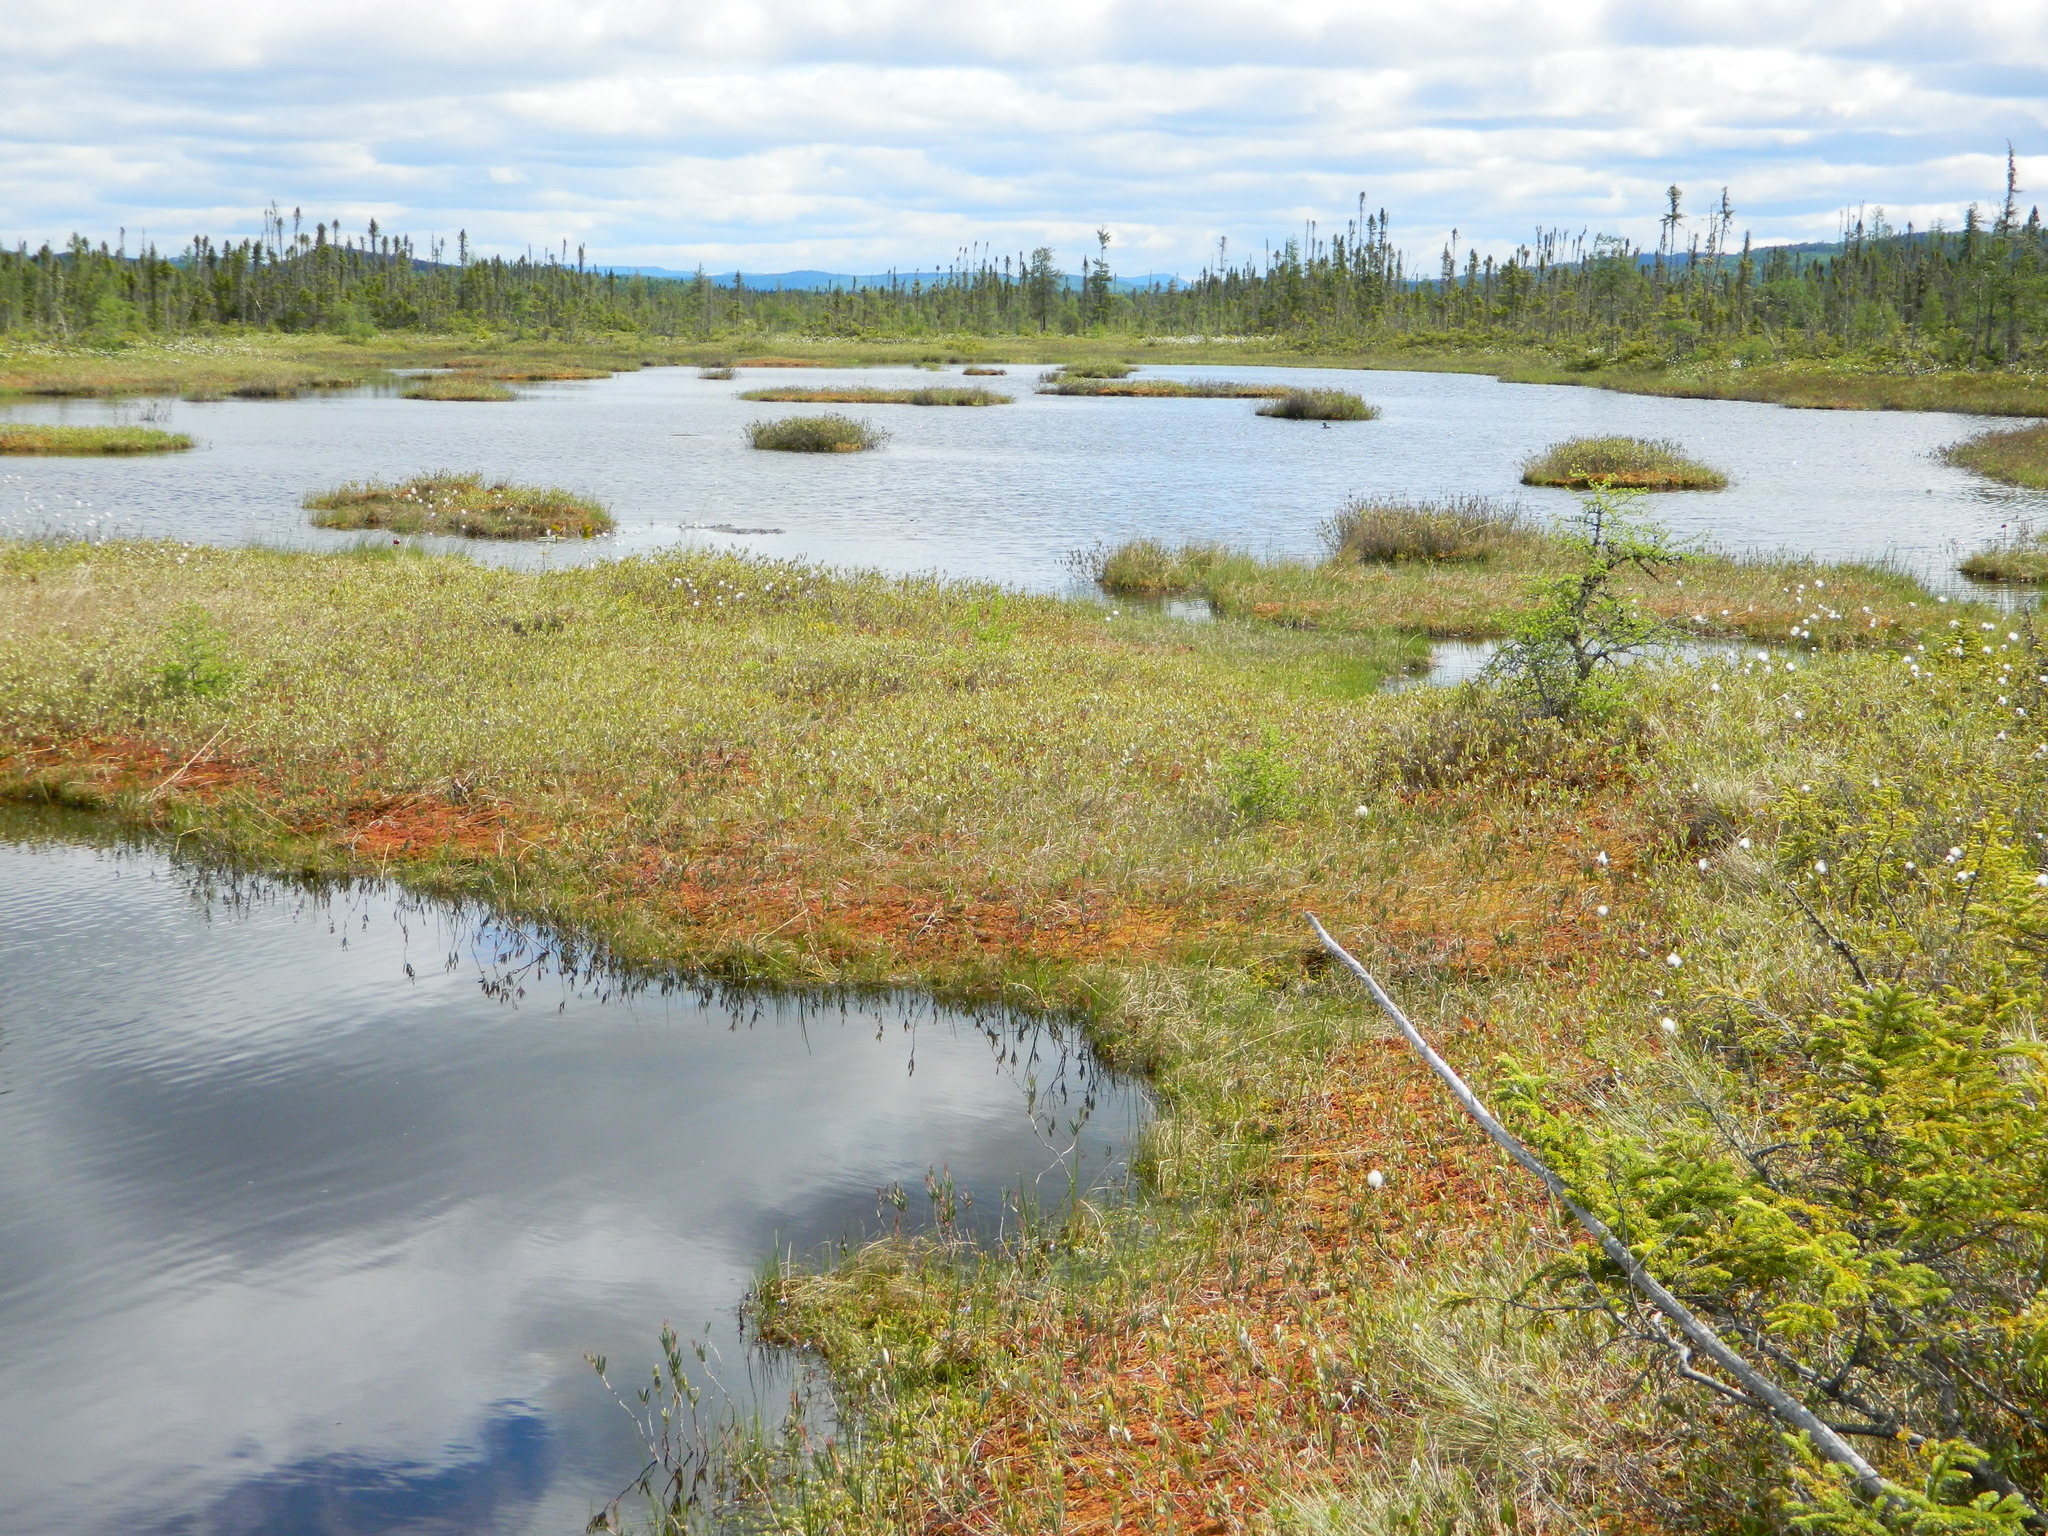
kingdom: Animalia
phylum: Chordata
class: Aves
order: Anseriformes
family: Anatidae
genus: Bucephala
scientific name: Bucephala albeola
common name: Bufflehead
